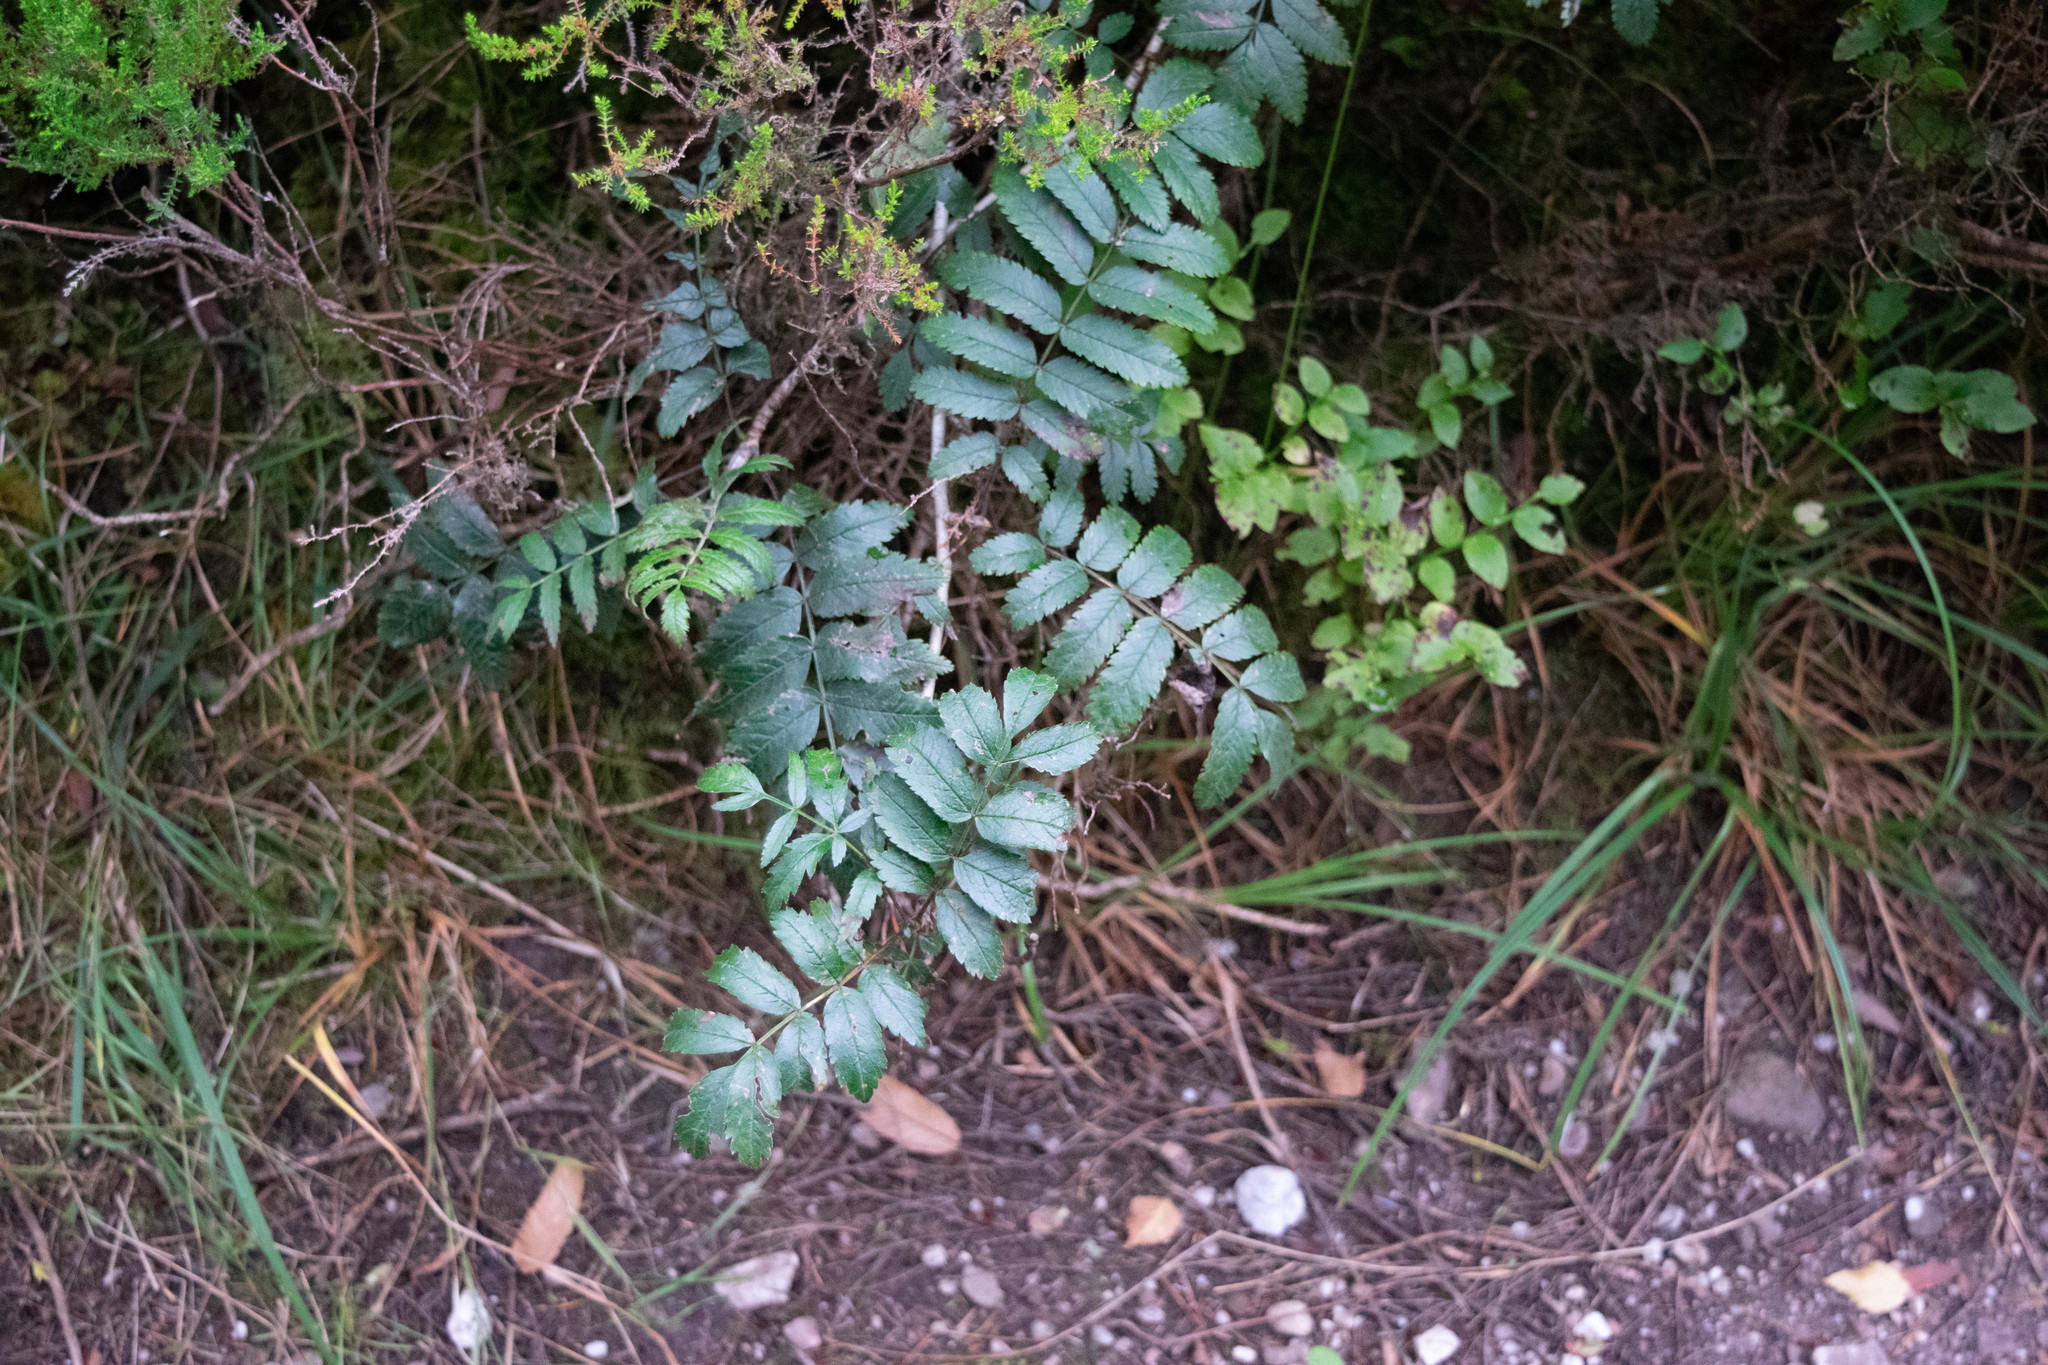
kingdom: Plantae
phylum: Tracheophyta
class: Magnoliopsida
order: Rosales
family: Rosaceae
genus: Sorbus
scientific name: Sorbus aucuparia
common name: Rowan
